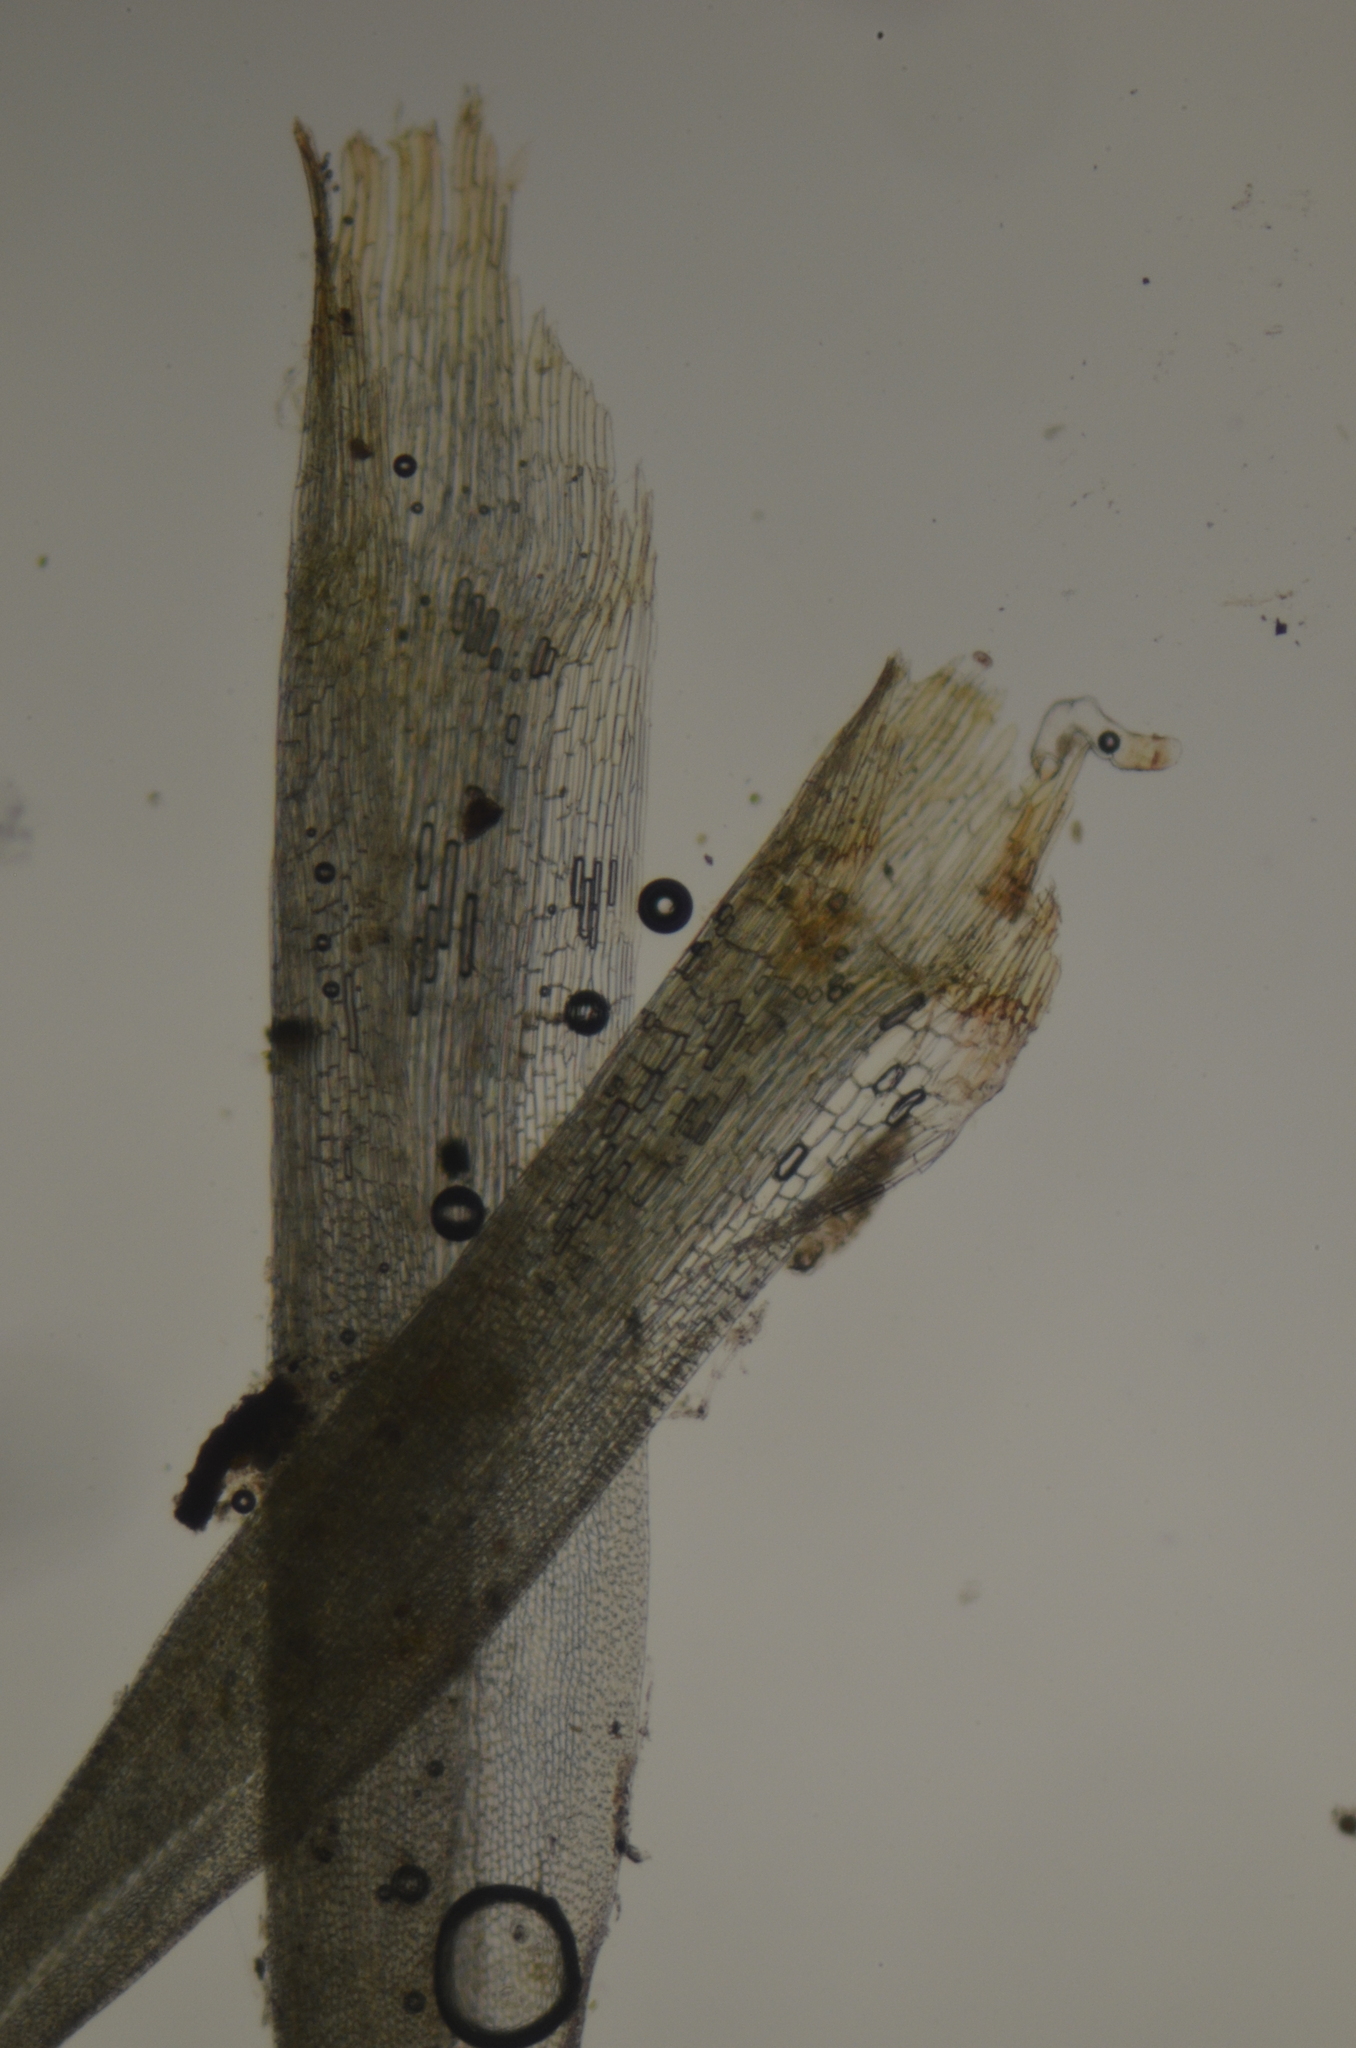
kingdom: Plantae
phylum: Bryophyta
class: Bryopsida
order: Dicranales
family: Leucobryaceae
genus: Campylopus
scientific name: Campylopus introflexus
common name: Heath star moss
